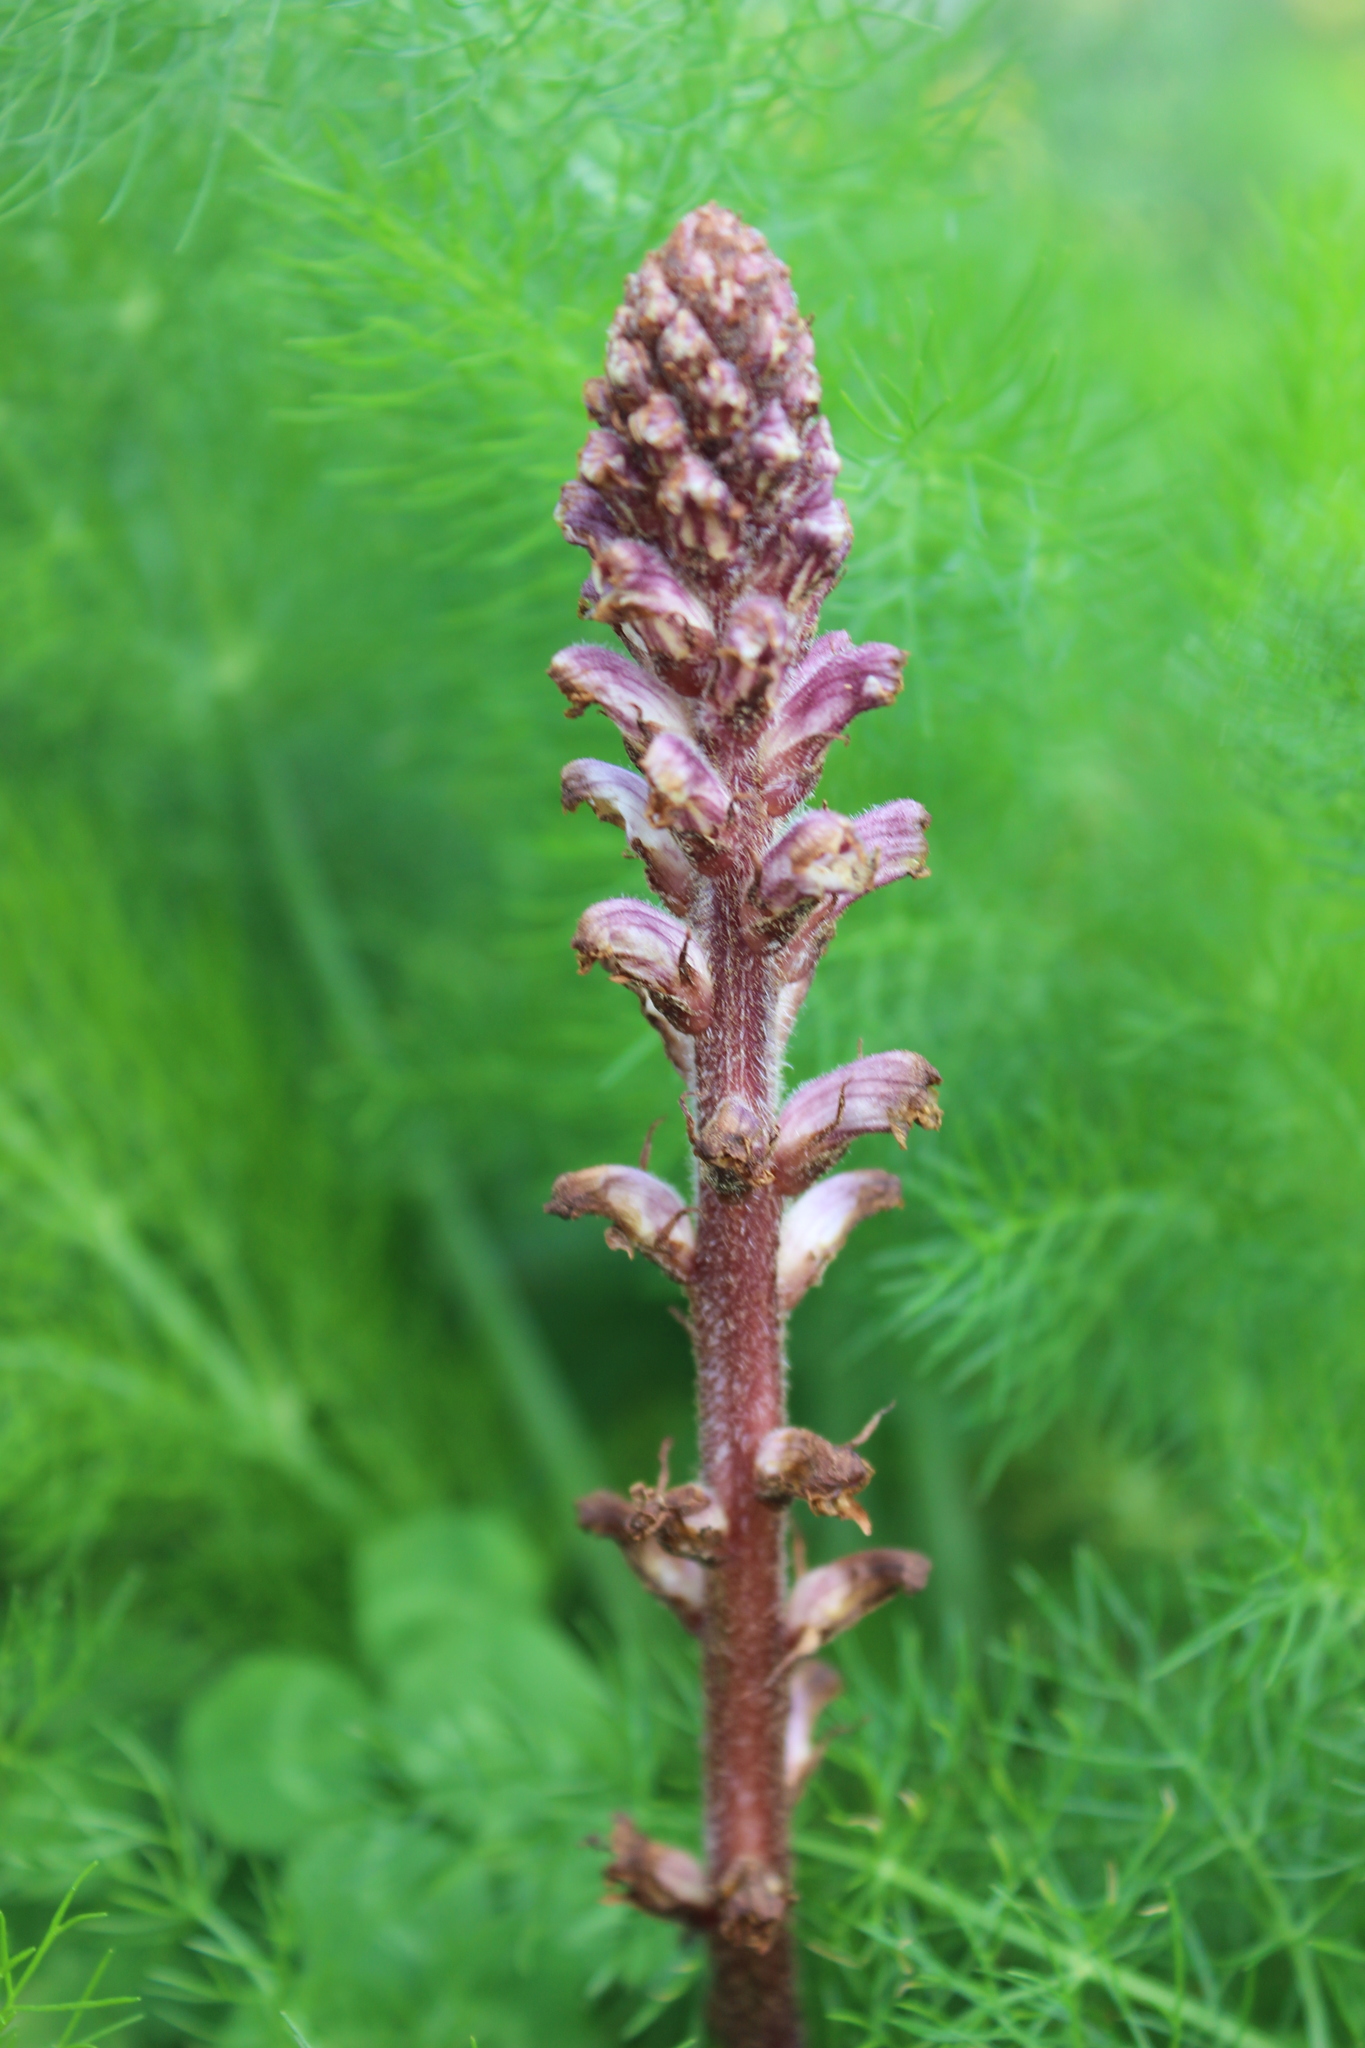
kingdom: Plantae
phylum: Tracheophyta
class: Magnoliopsida
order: Lamiales
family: Orobanchaceae
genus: Orobanche
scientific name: Orobanche minor
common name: Common broomrape
